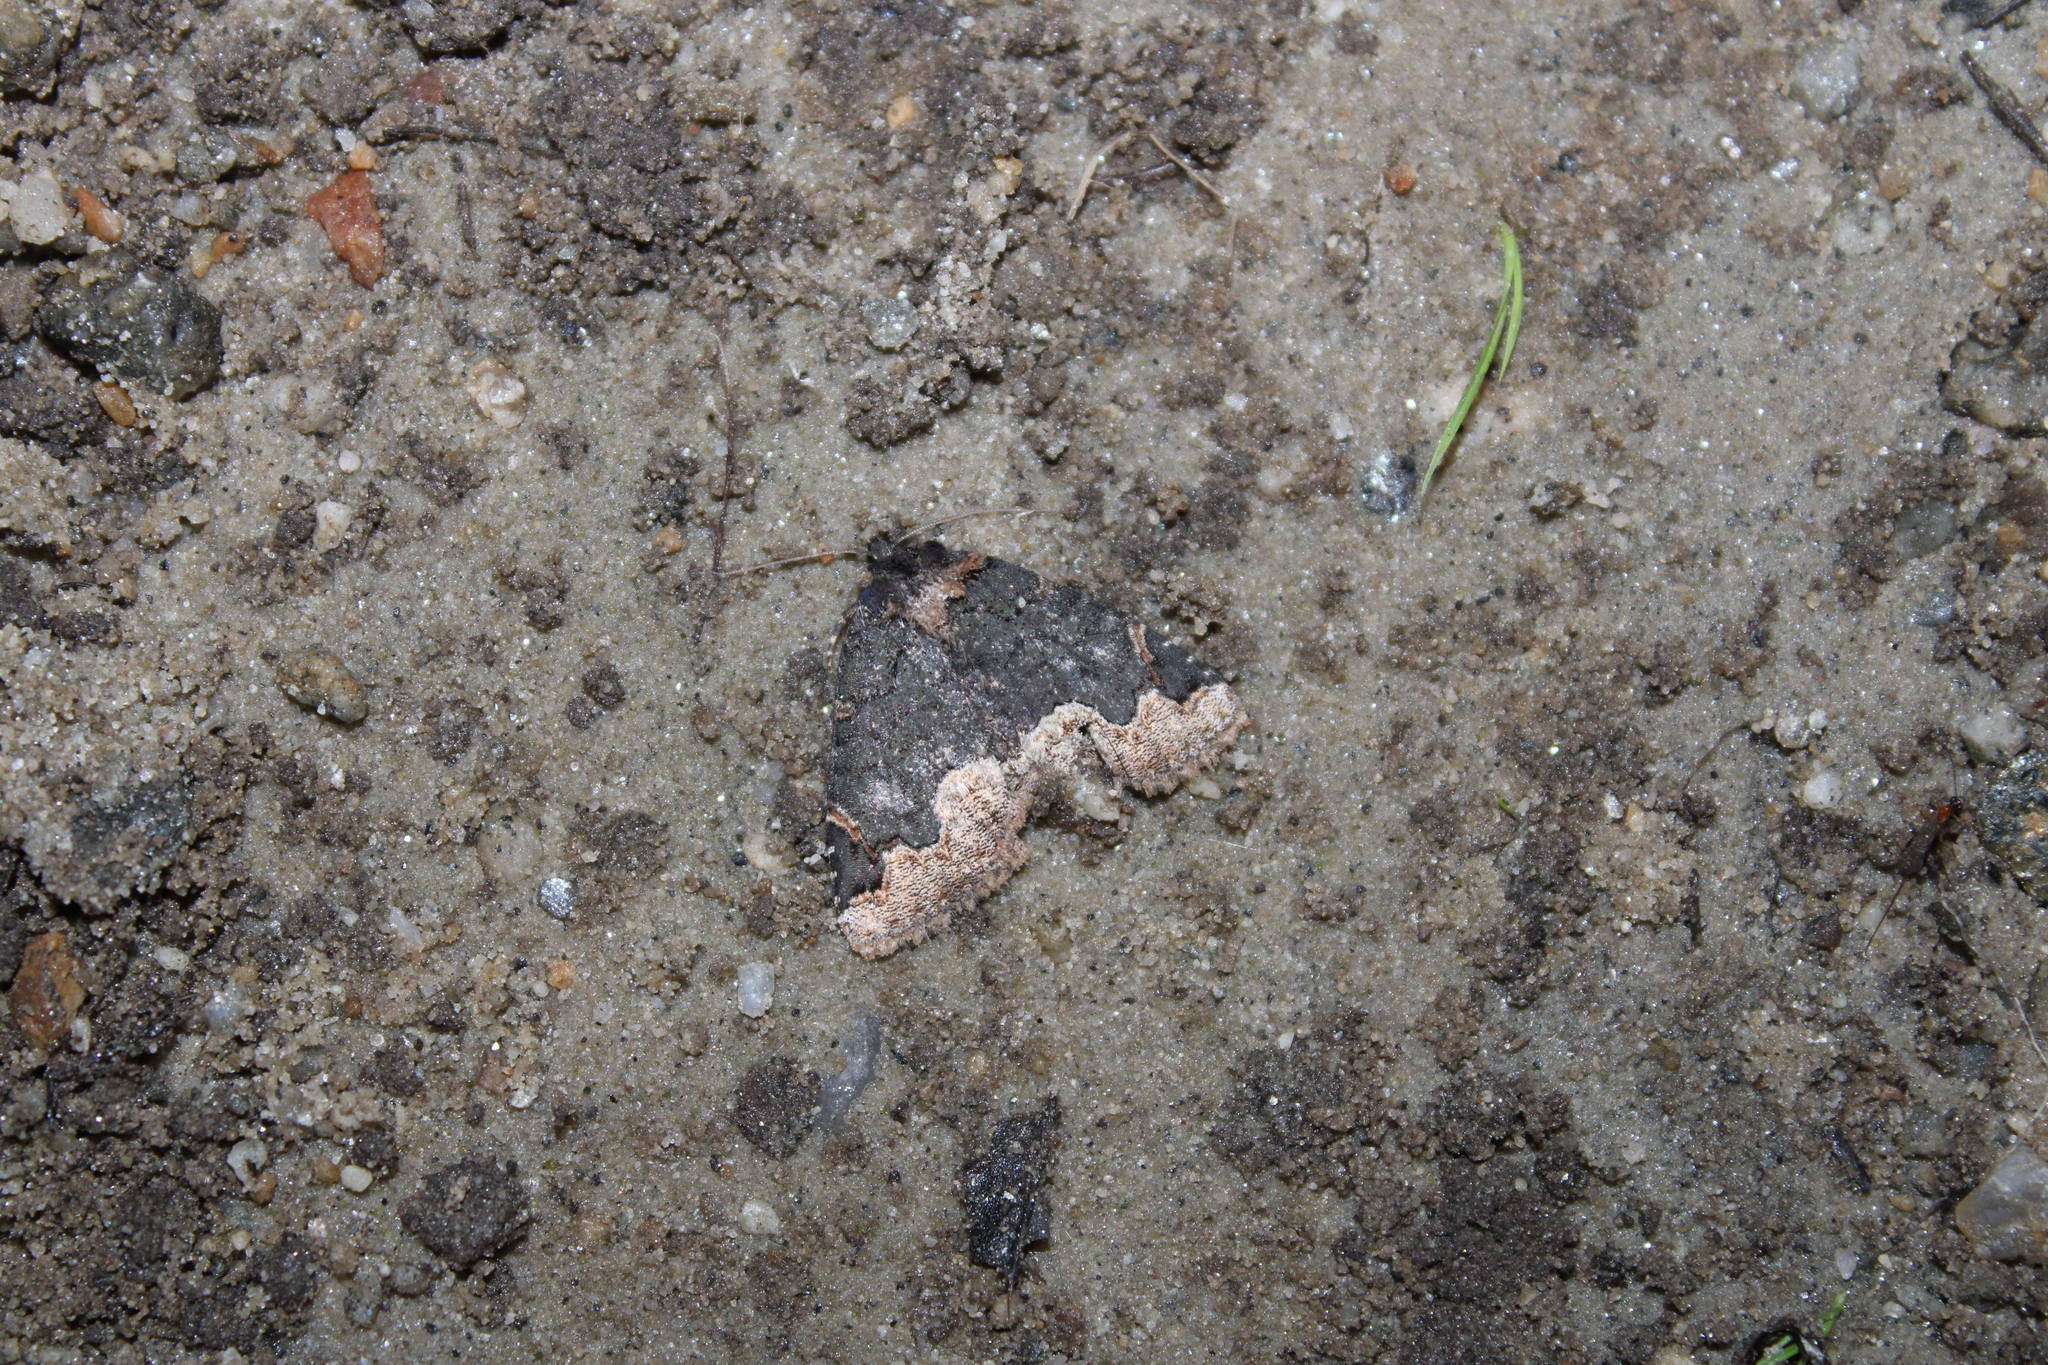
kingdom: Animalia
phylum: Arthropoda
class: Insecta
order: Lepidoptera
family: Erebidae
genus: Zale
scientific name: Zale horrida
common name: Horrid zale moth
